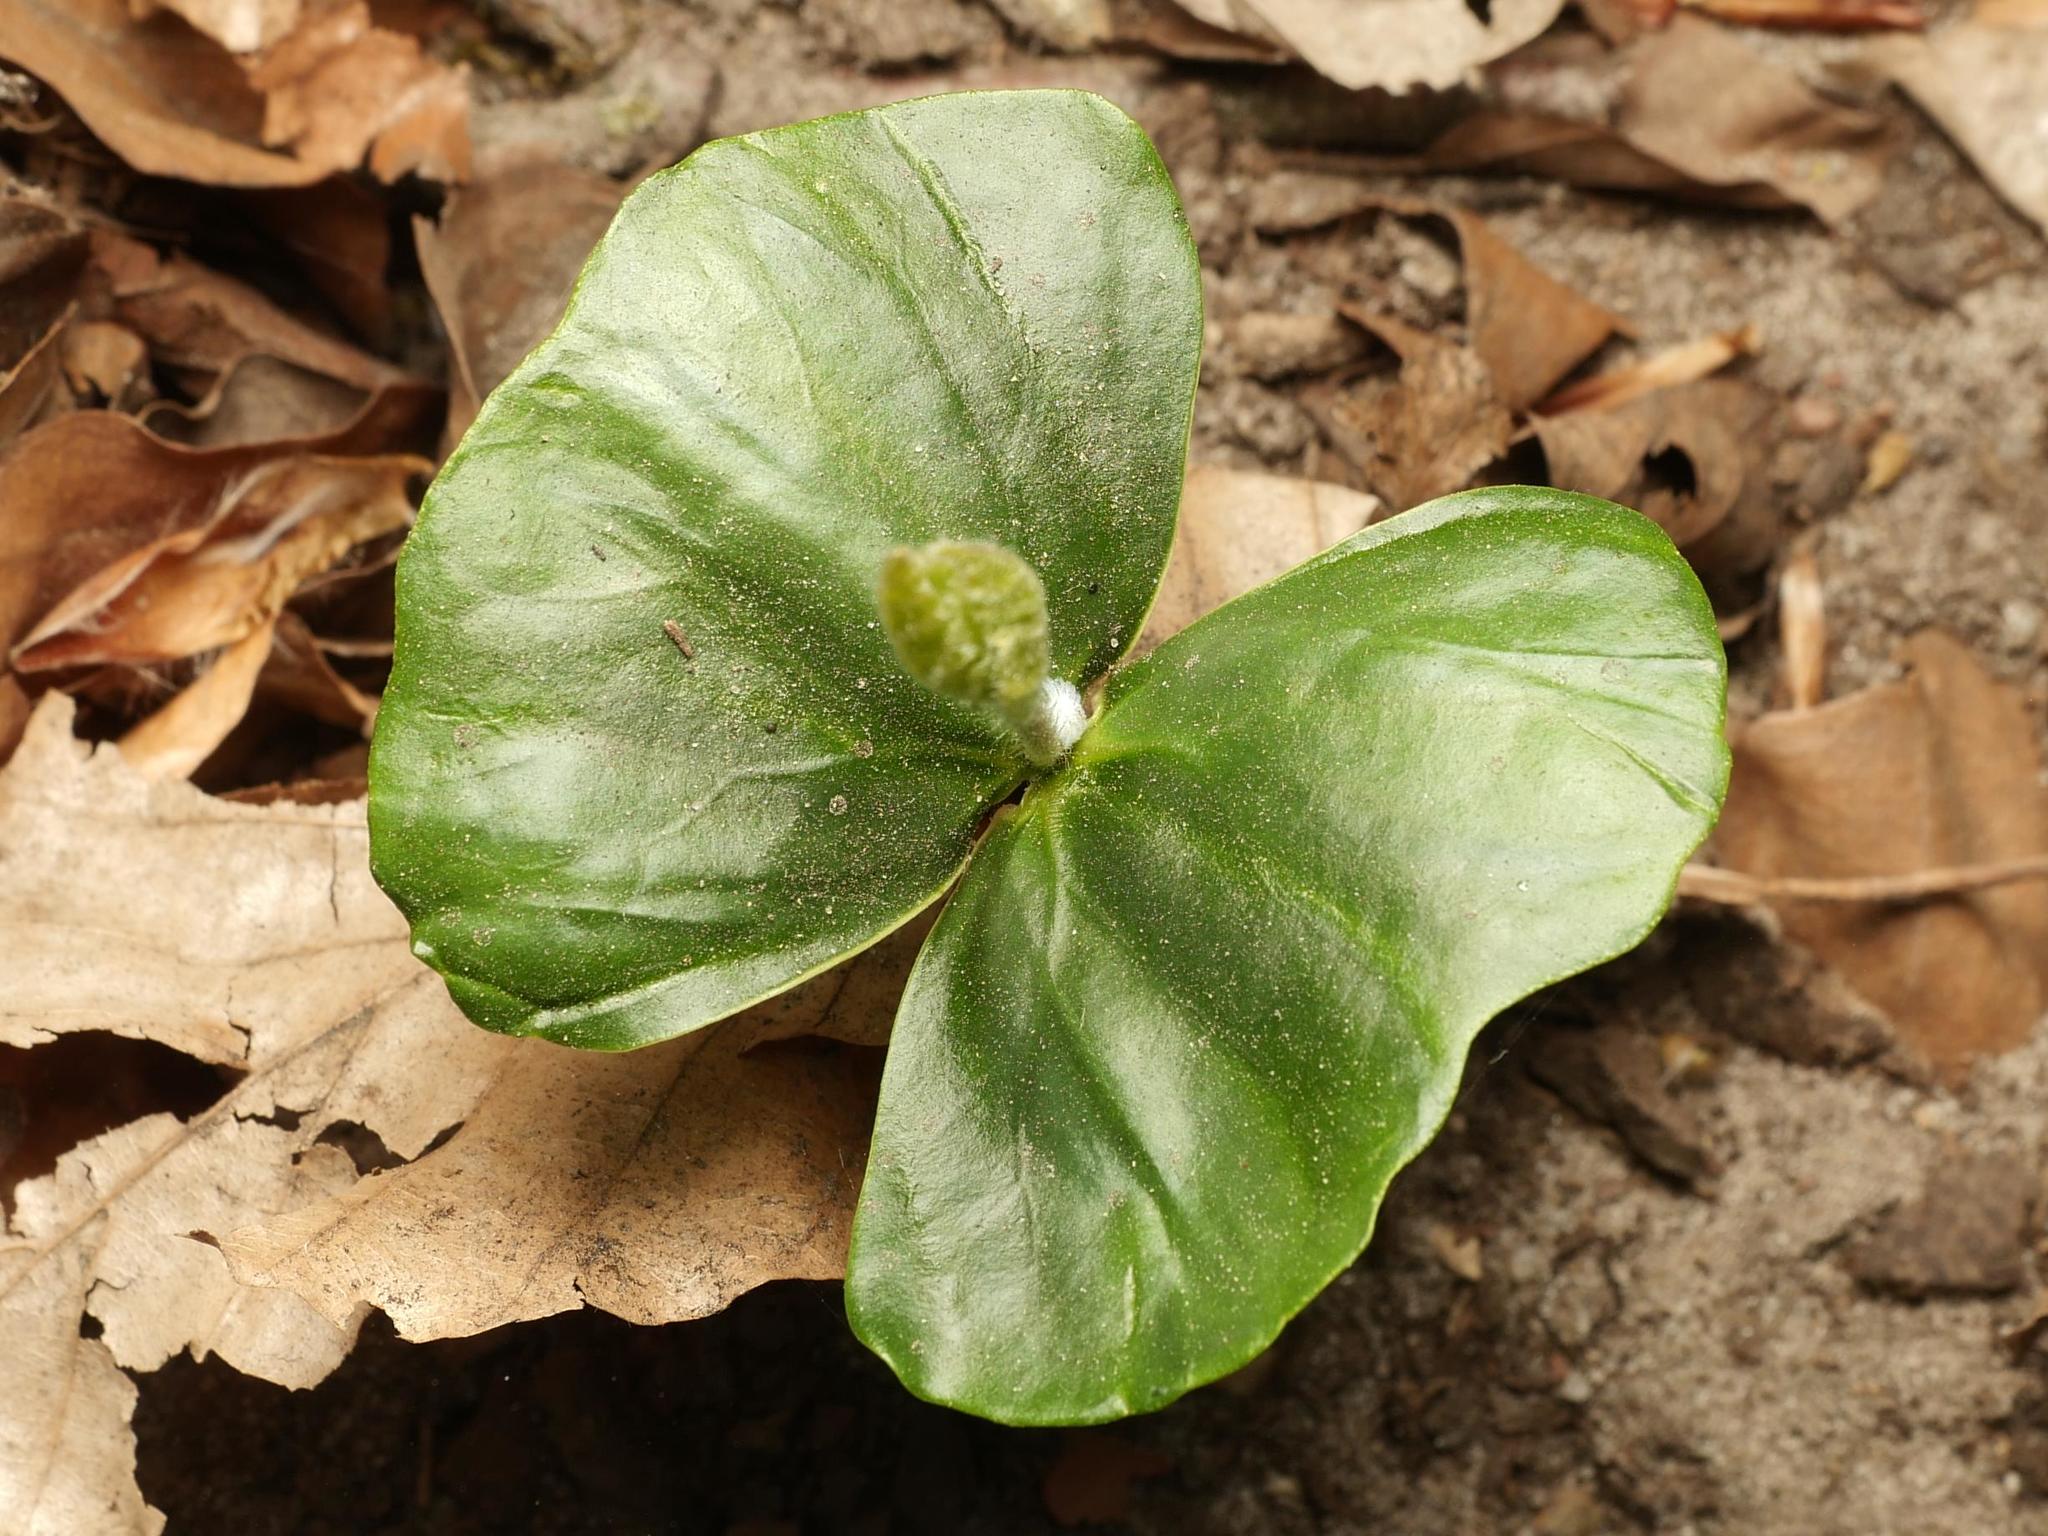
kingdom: Plantae
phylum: Tracheophyta
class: Magnoliopsida
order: Fagales
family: Fagaceae
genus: Fagus
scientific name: Fagus sylvatica
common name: Beech
